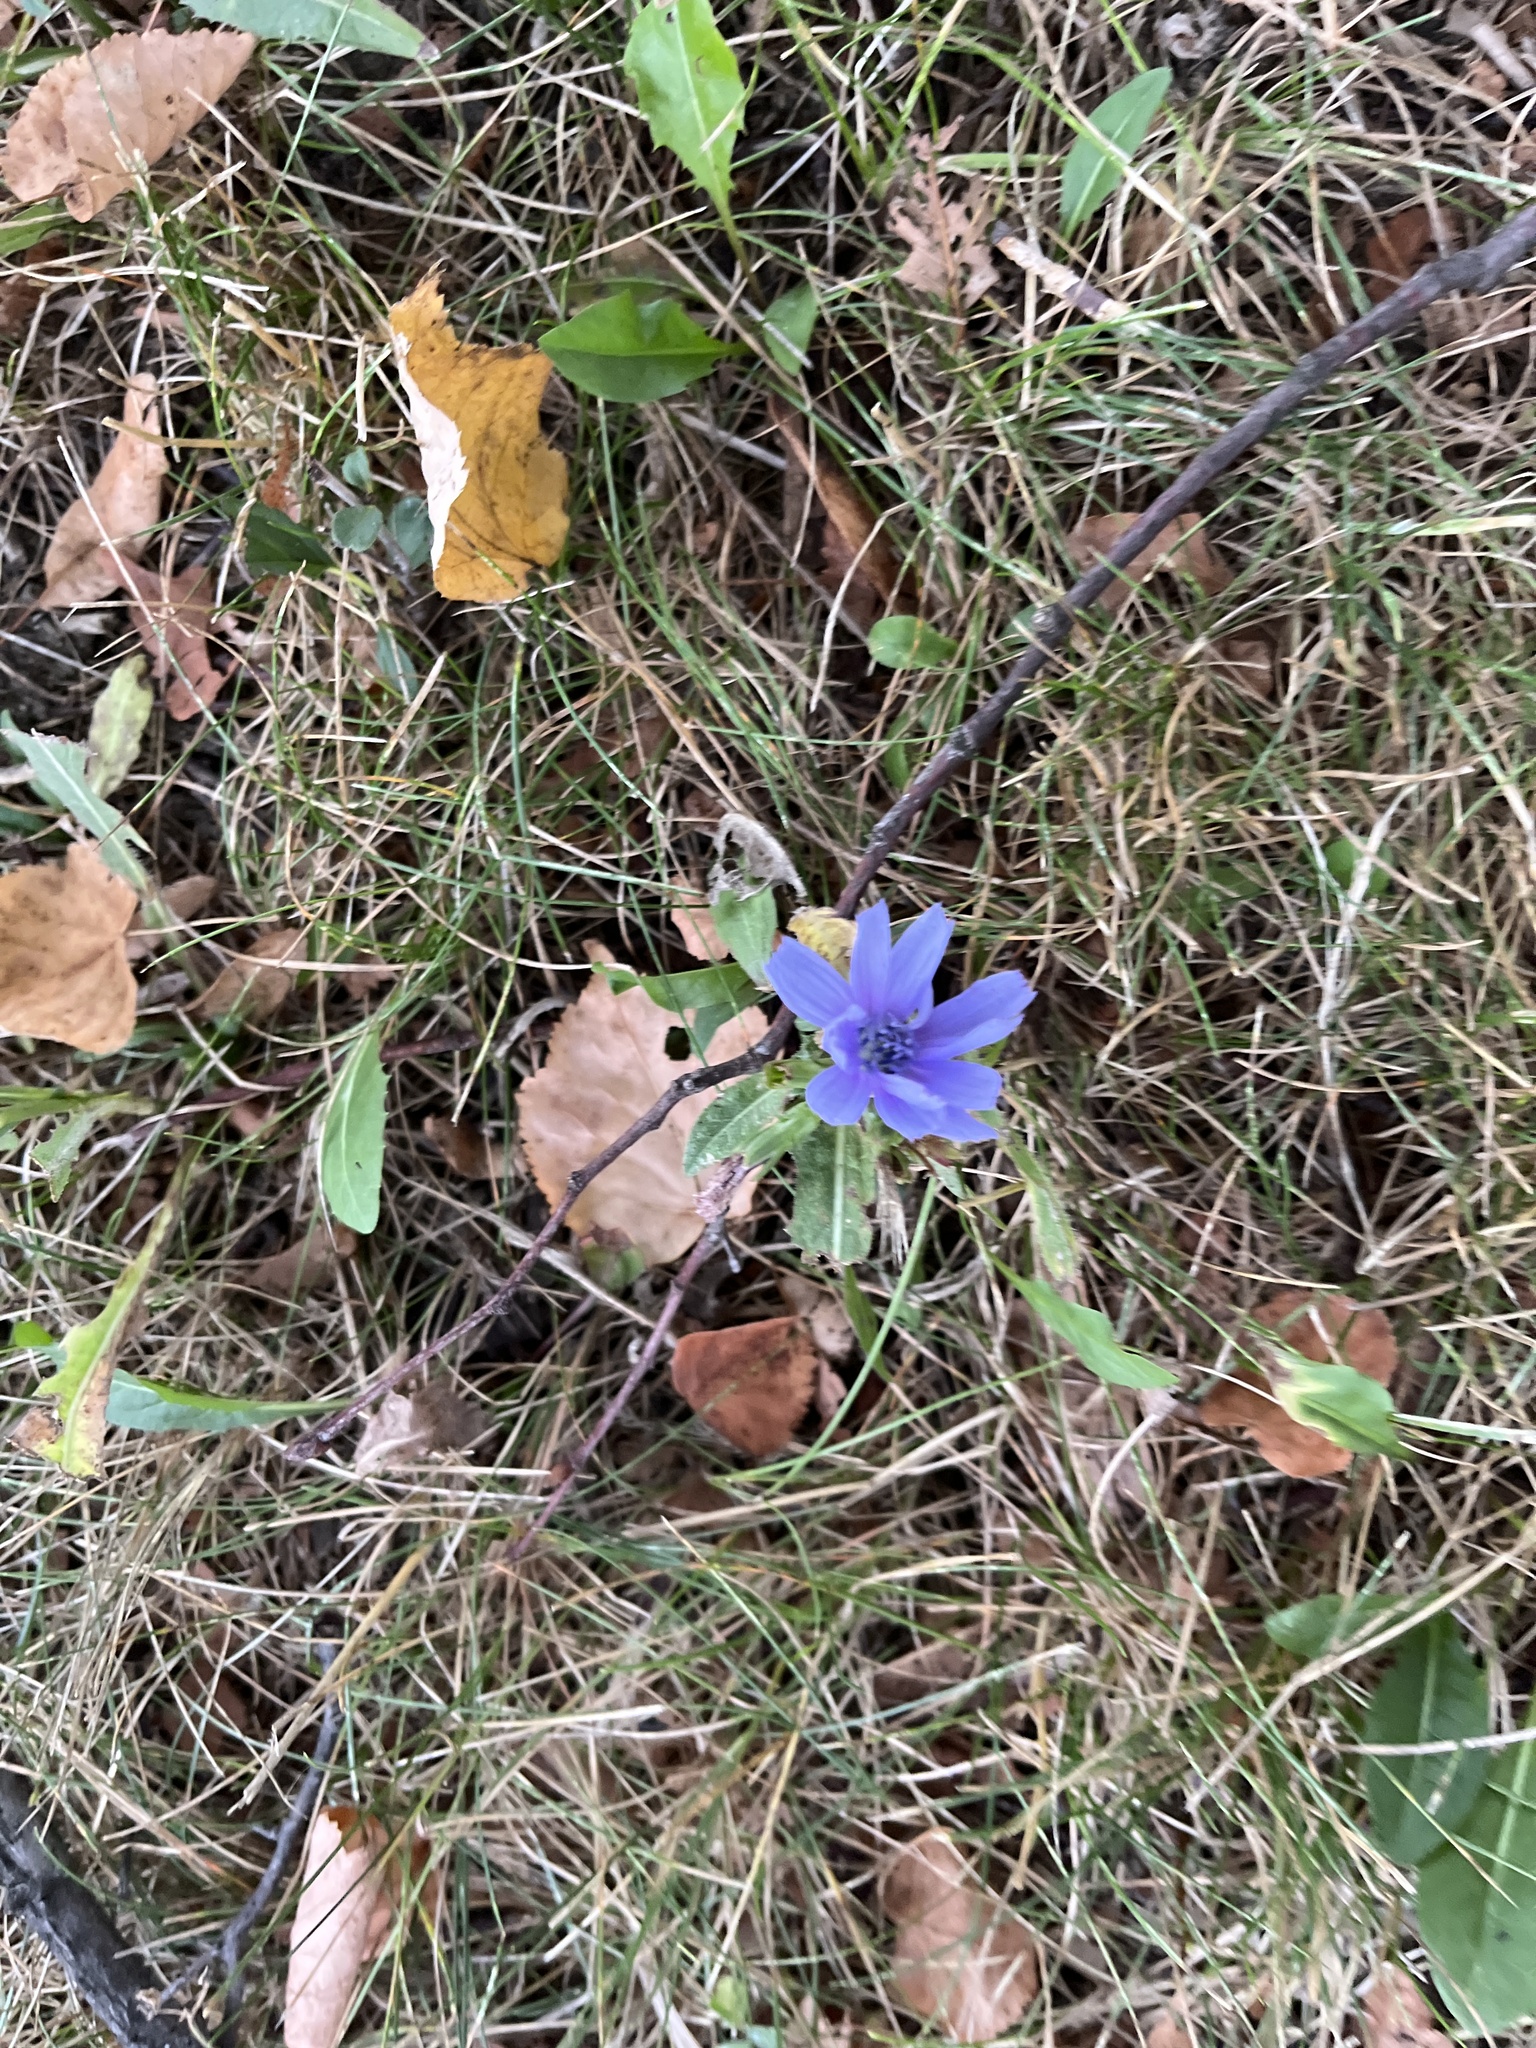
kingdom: Plantae
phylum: Tracheophyta
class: Magnoliopsida
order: Asterales
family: Asteraceae
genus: Cichorium
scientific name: Cichorium intybus
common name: Chicory
